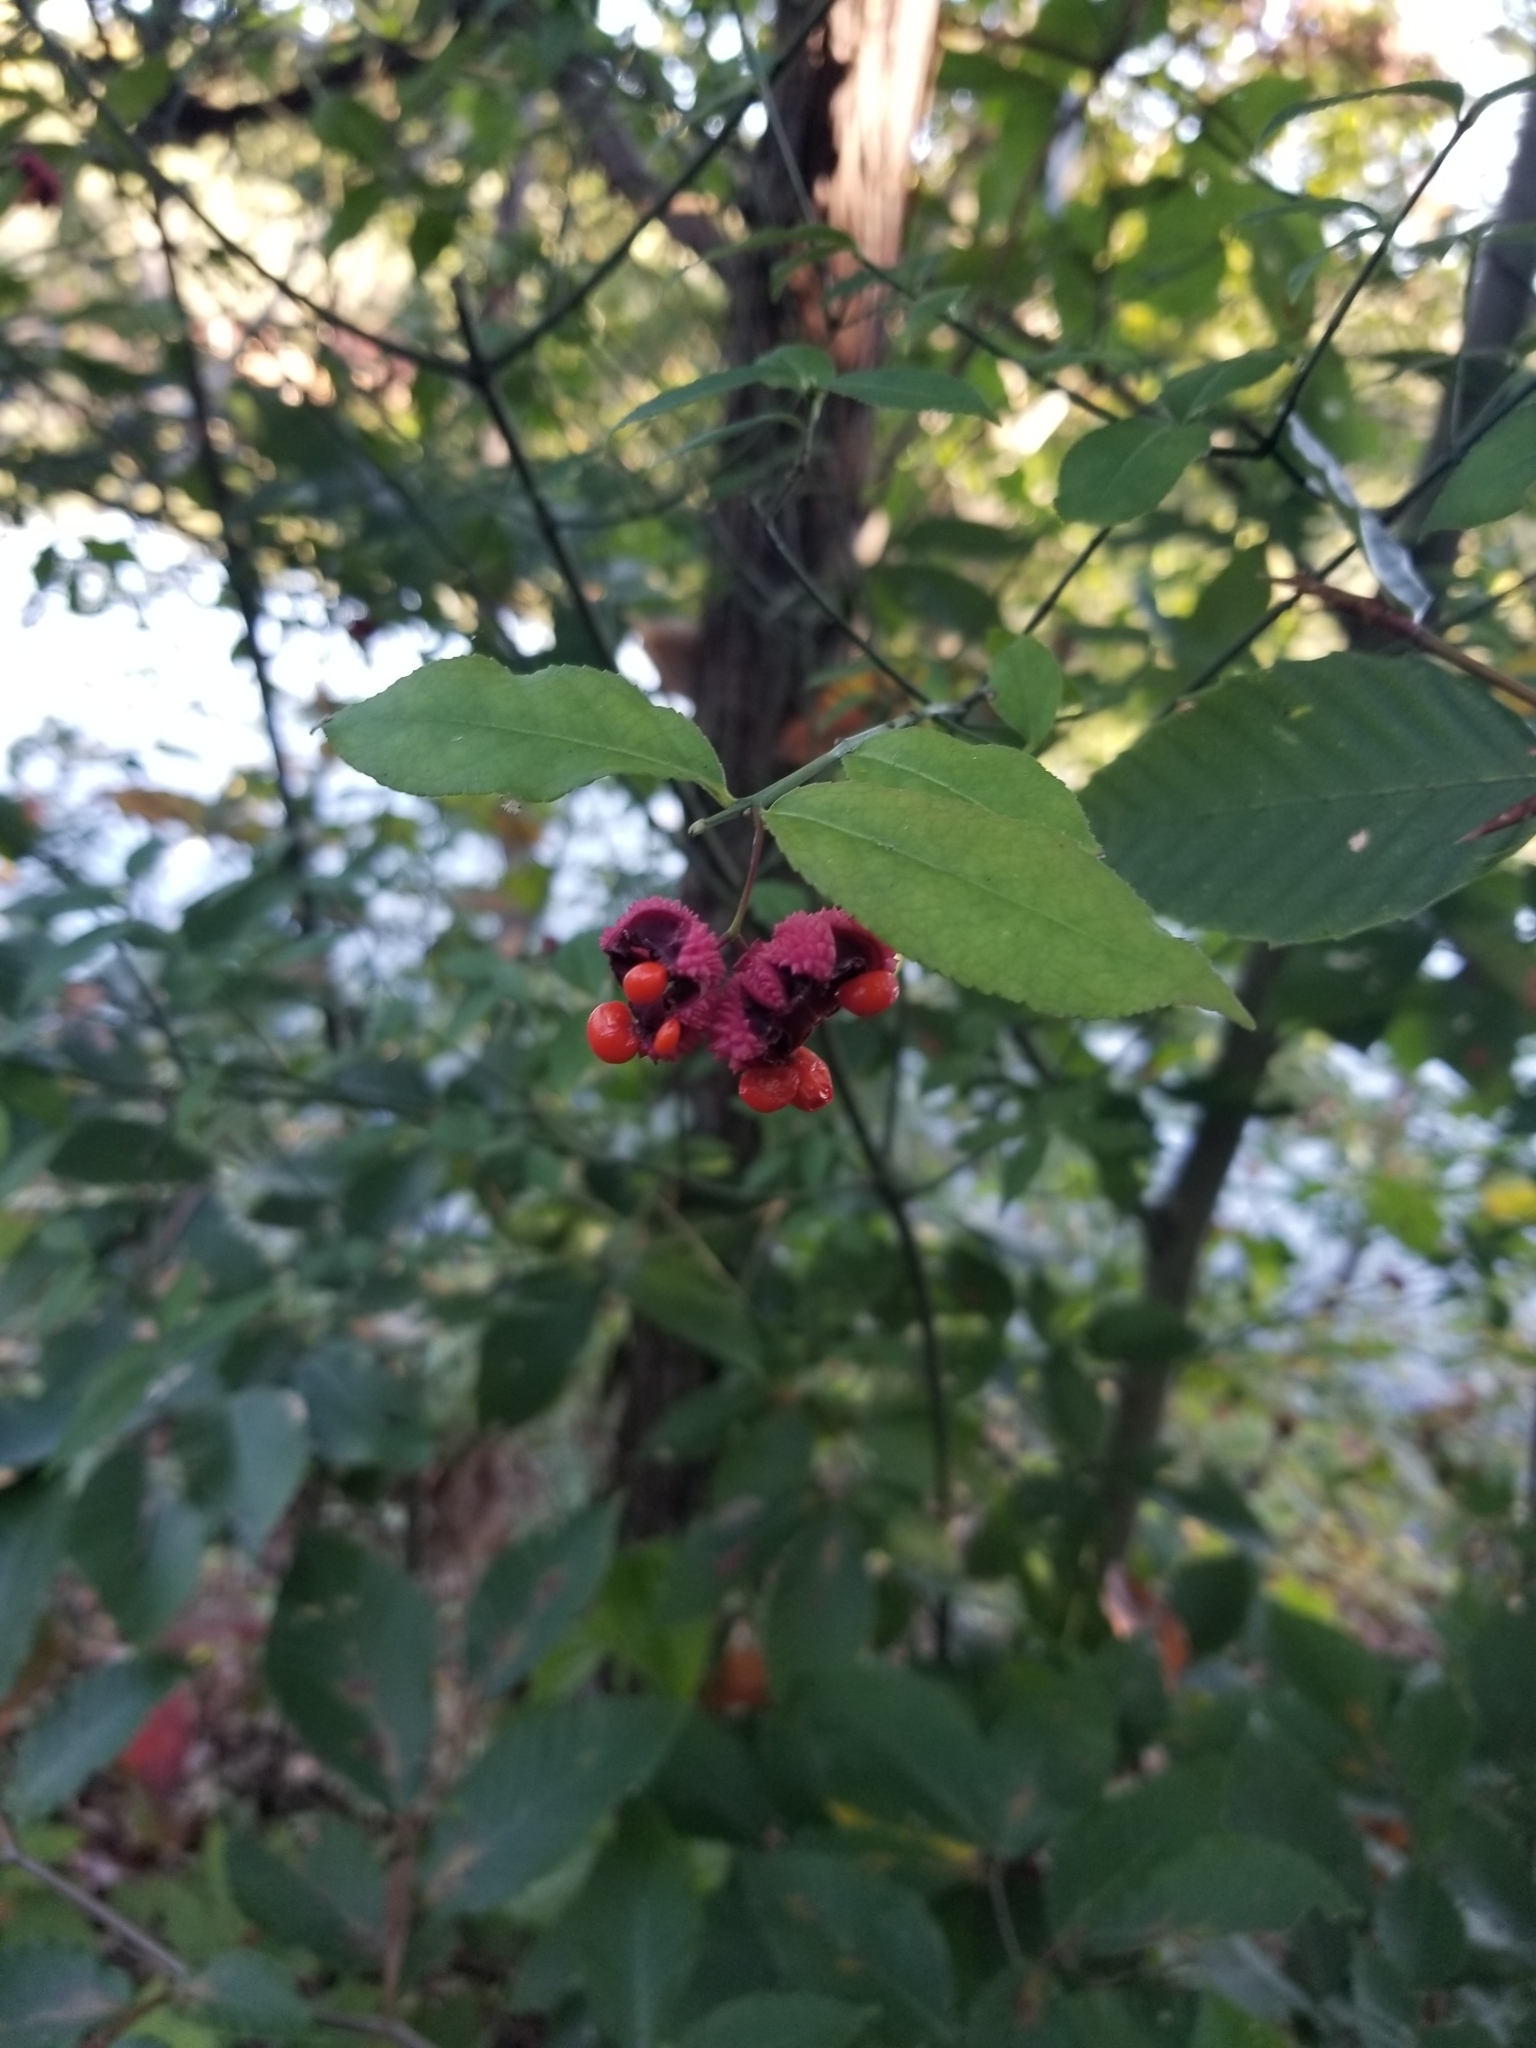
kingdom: Plantae
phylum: Tracheophyta
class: Magnoliopsida
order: Celastrales
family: Celastraceae
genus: Euonymus
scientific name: Euonymus americanus
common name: Bursting-heart
